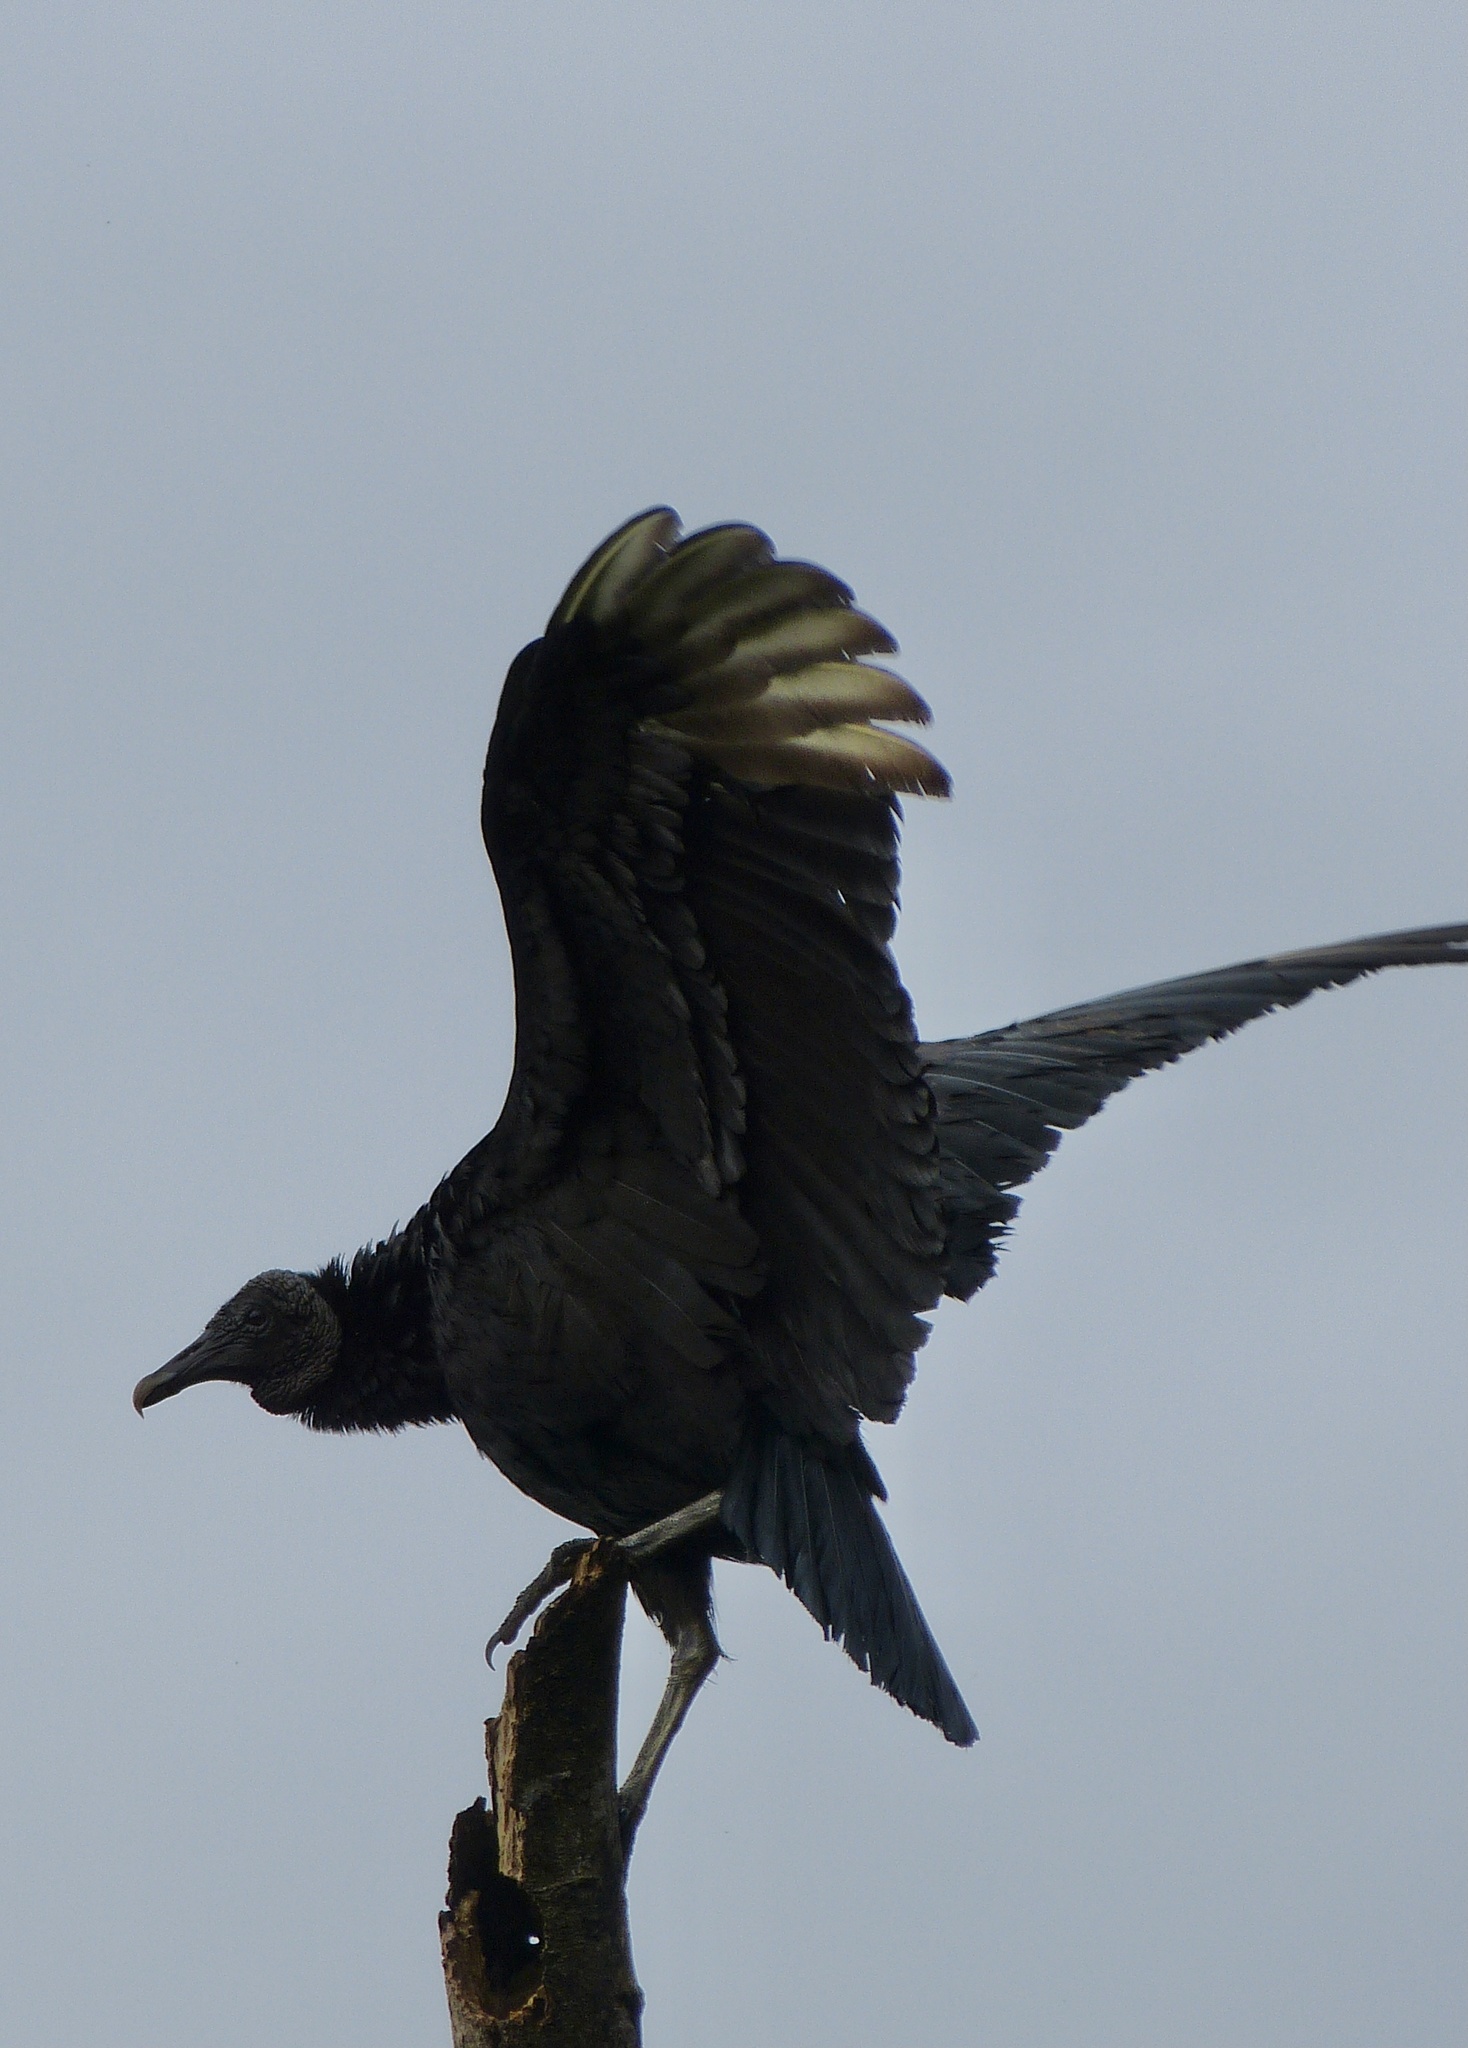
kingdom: Animalia
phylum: Chordata
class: Aves
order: Accipitriformes
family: Cathartidae
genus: Coragyps
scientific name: Coragyps atratus
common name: Black vulture
